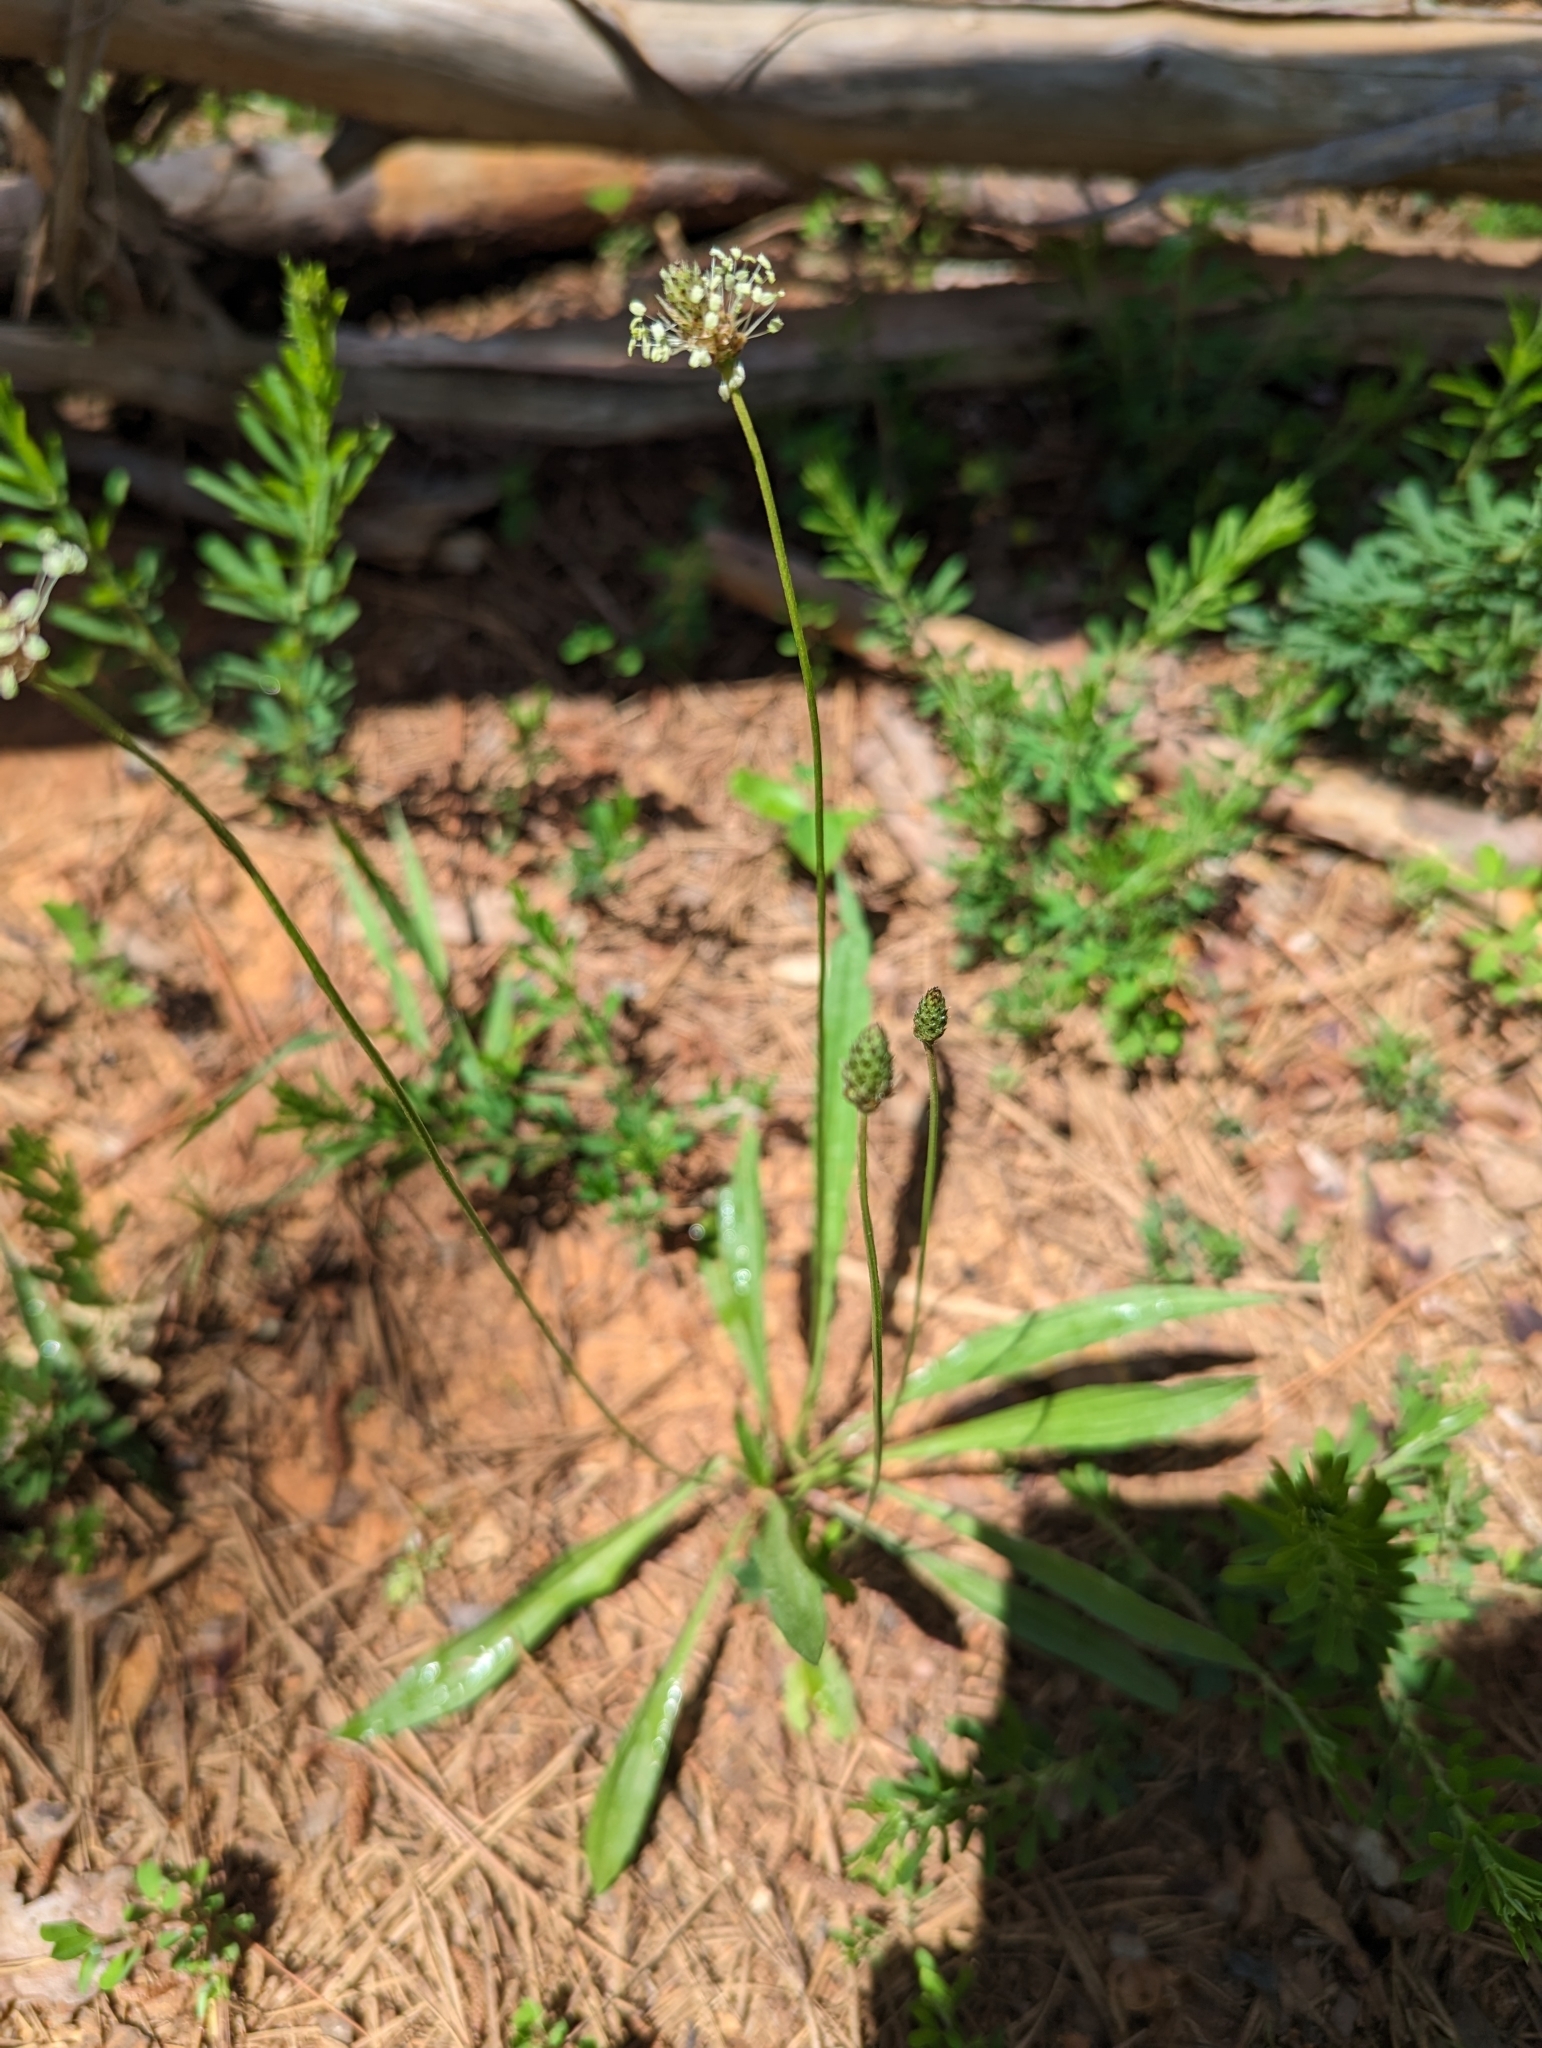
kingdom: Plantae
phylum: Tracheophyta
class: Magnoliopsida
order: Lamiales
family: Plantaginaceae
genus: Plantago
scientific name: Plantago lanceolata
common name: Ribwort plantain
